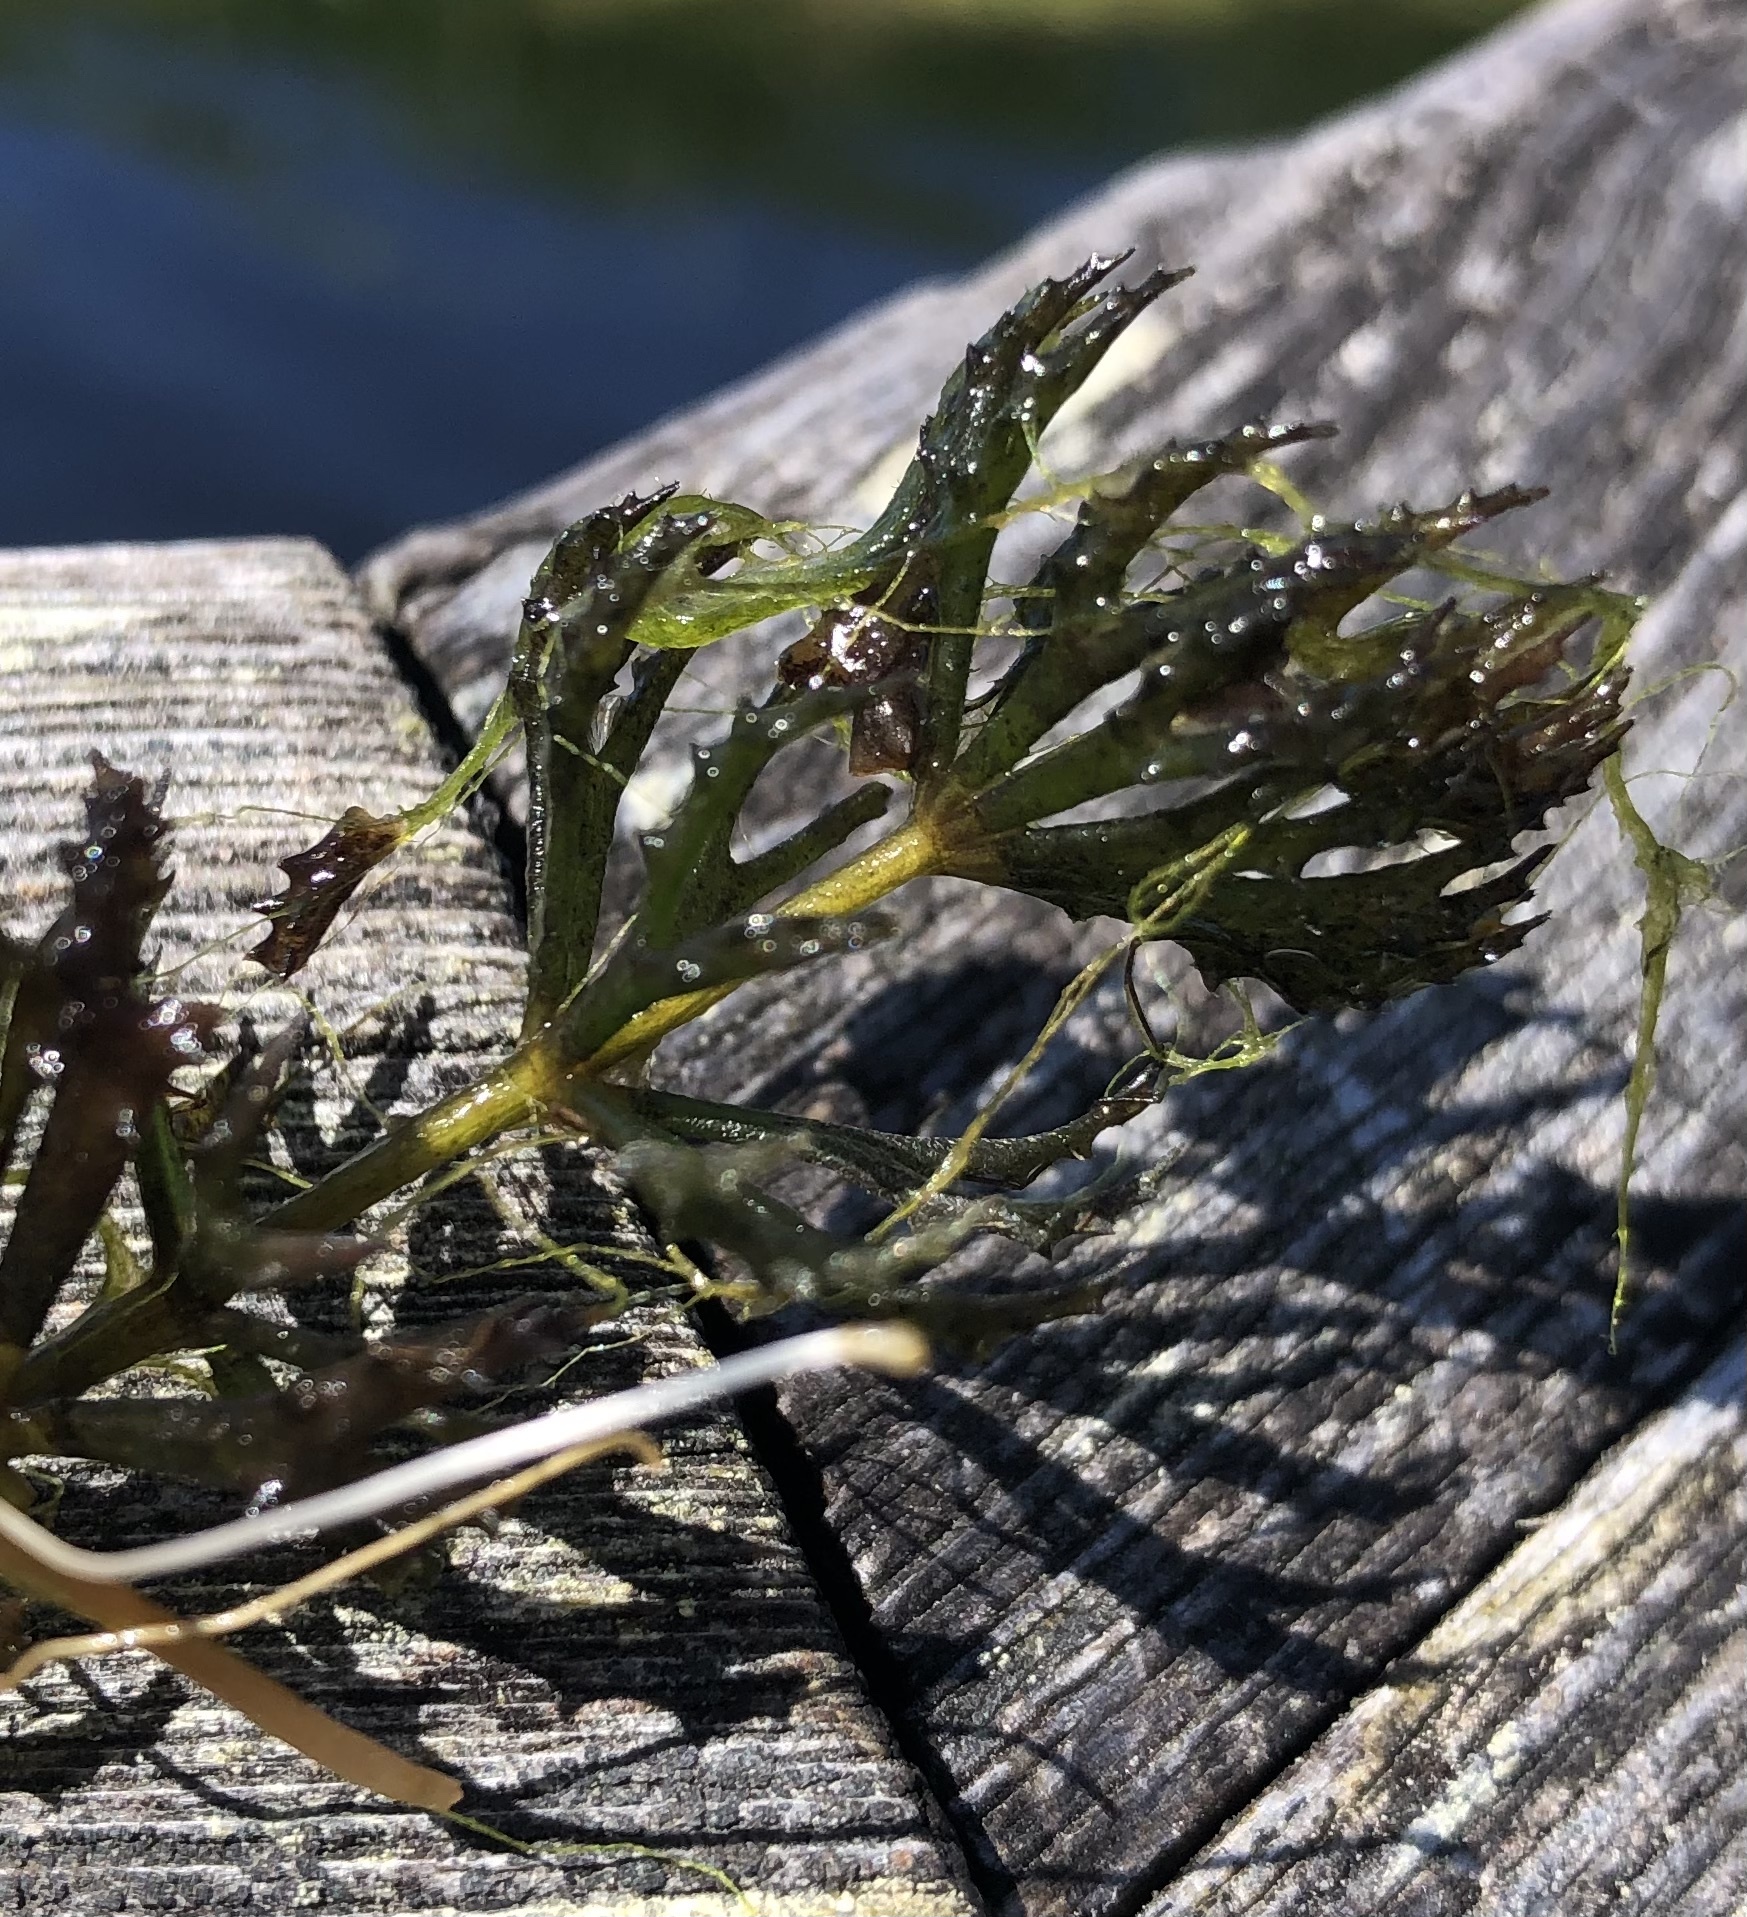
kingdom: Plantae
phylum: Tracheophyta
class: Magnoliopsida
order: Ceratophyllales
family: Ceratophyllaceae
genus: Ceratophyllum
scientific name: Ceratophyllum demersum
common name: Rigid hornwort
